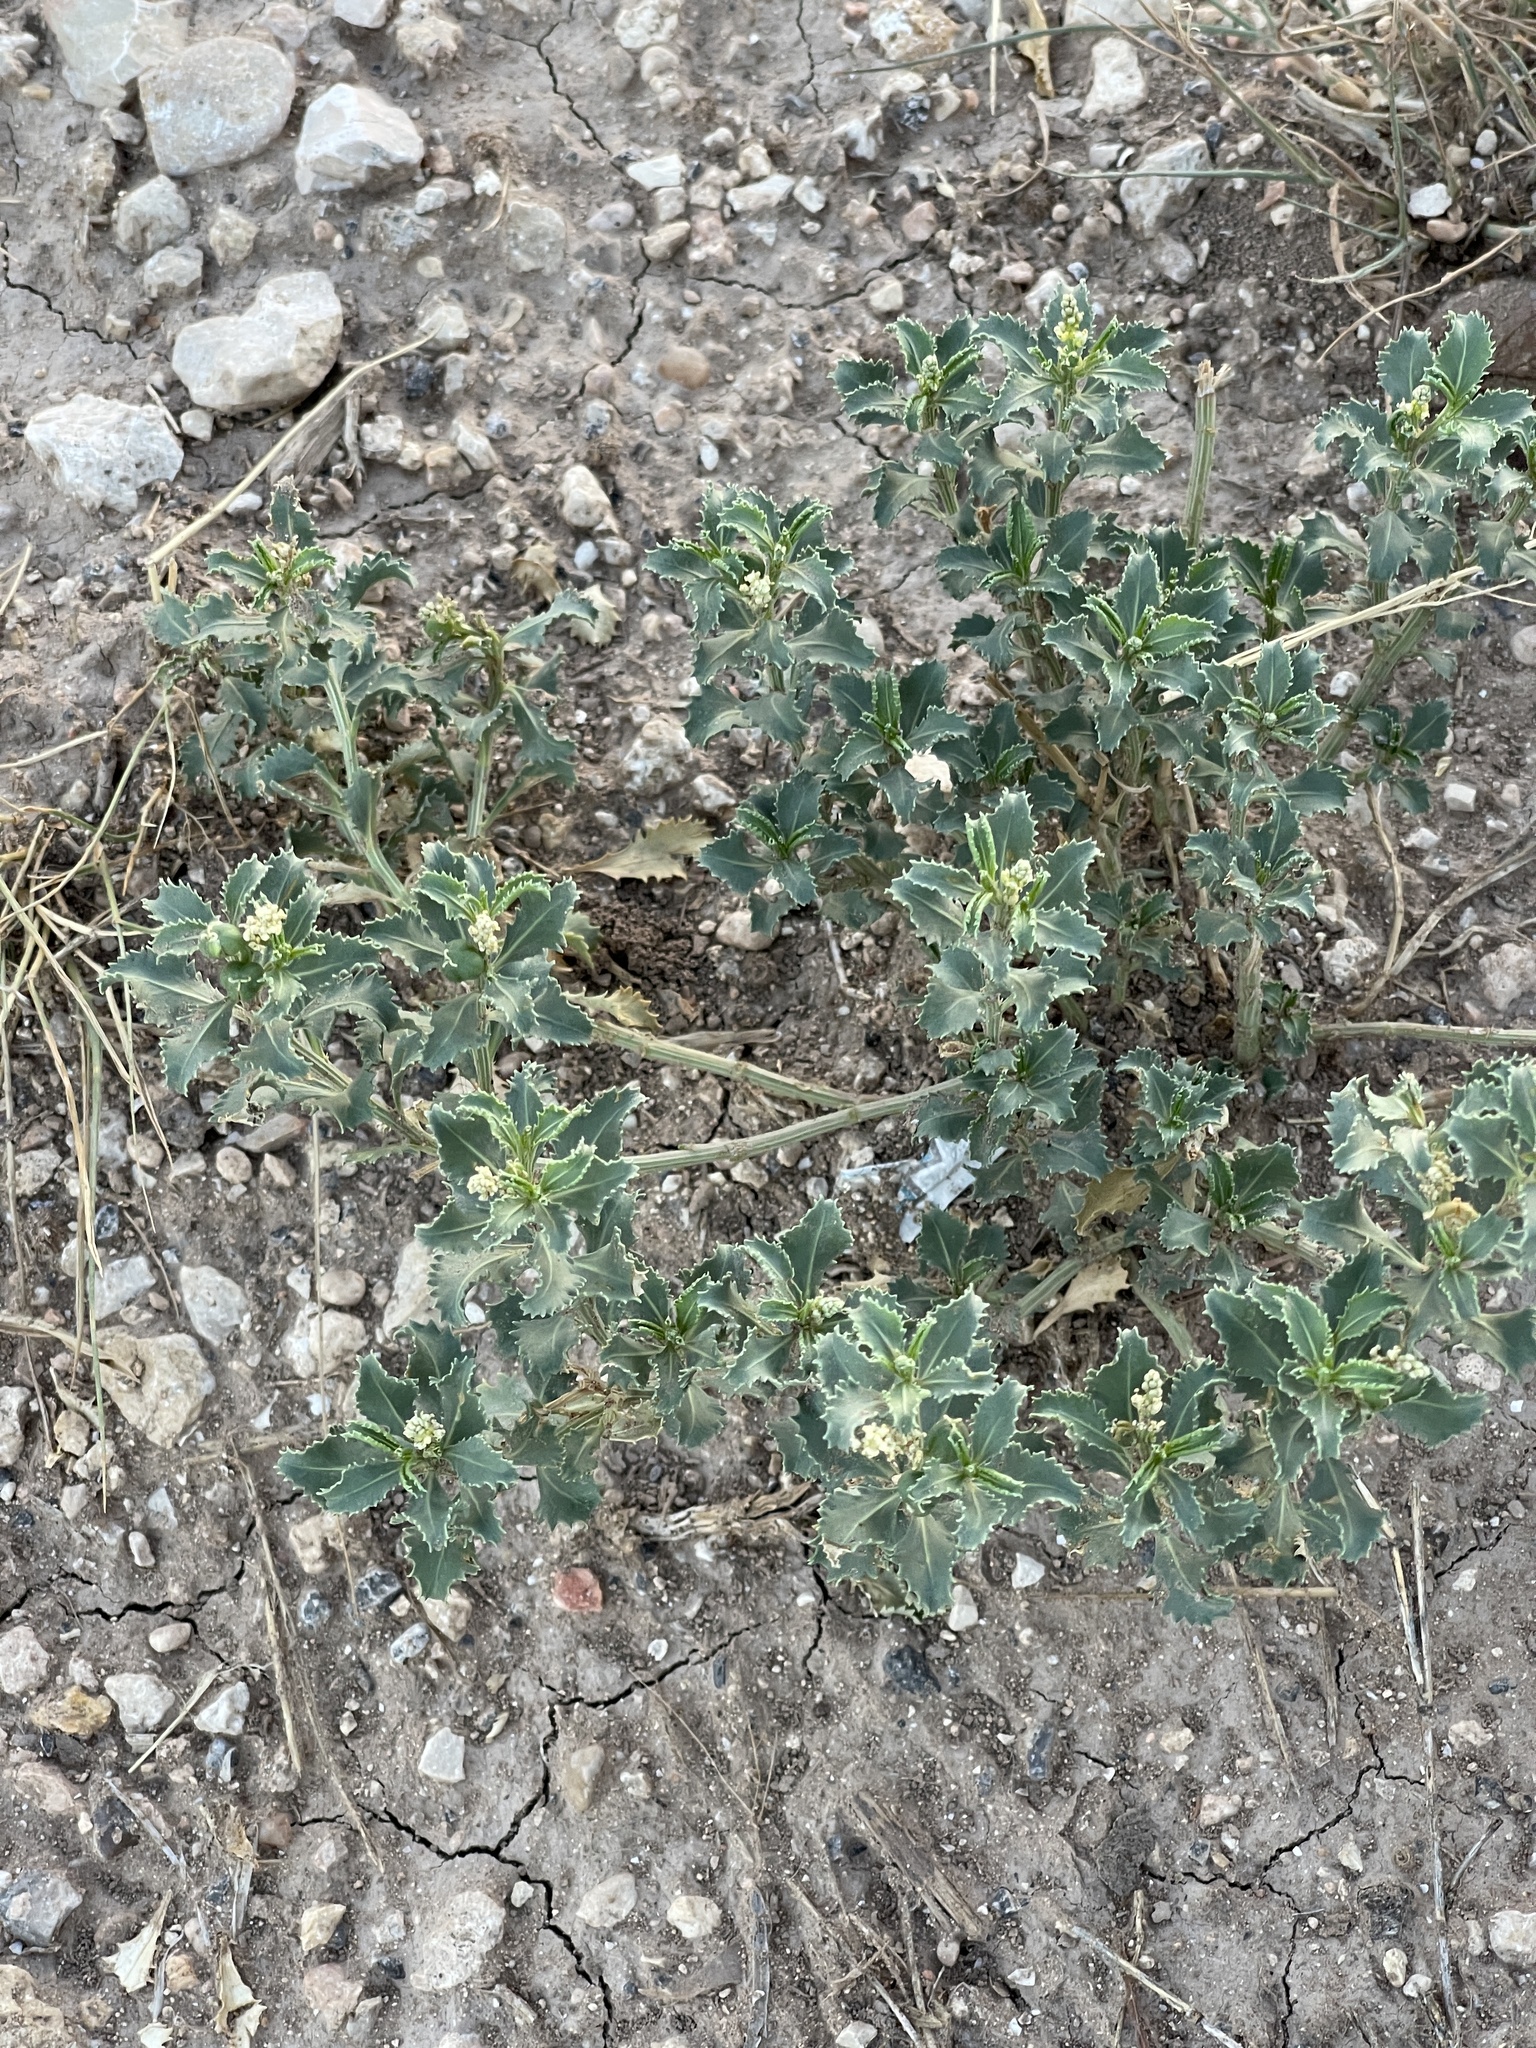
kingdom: Plantae
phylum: Tracheophyta
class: Magnoliopsida
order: Malpighiales
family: Euphorbiaceae
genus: Stillingia
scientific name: Stillingia treculiana
